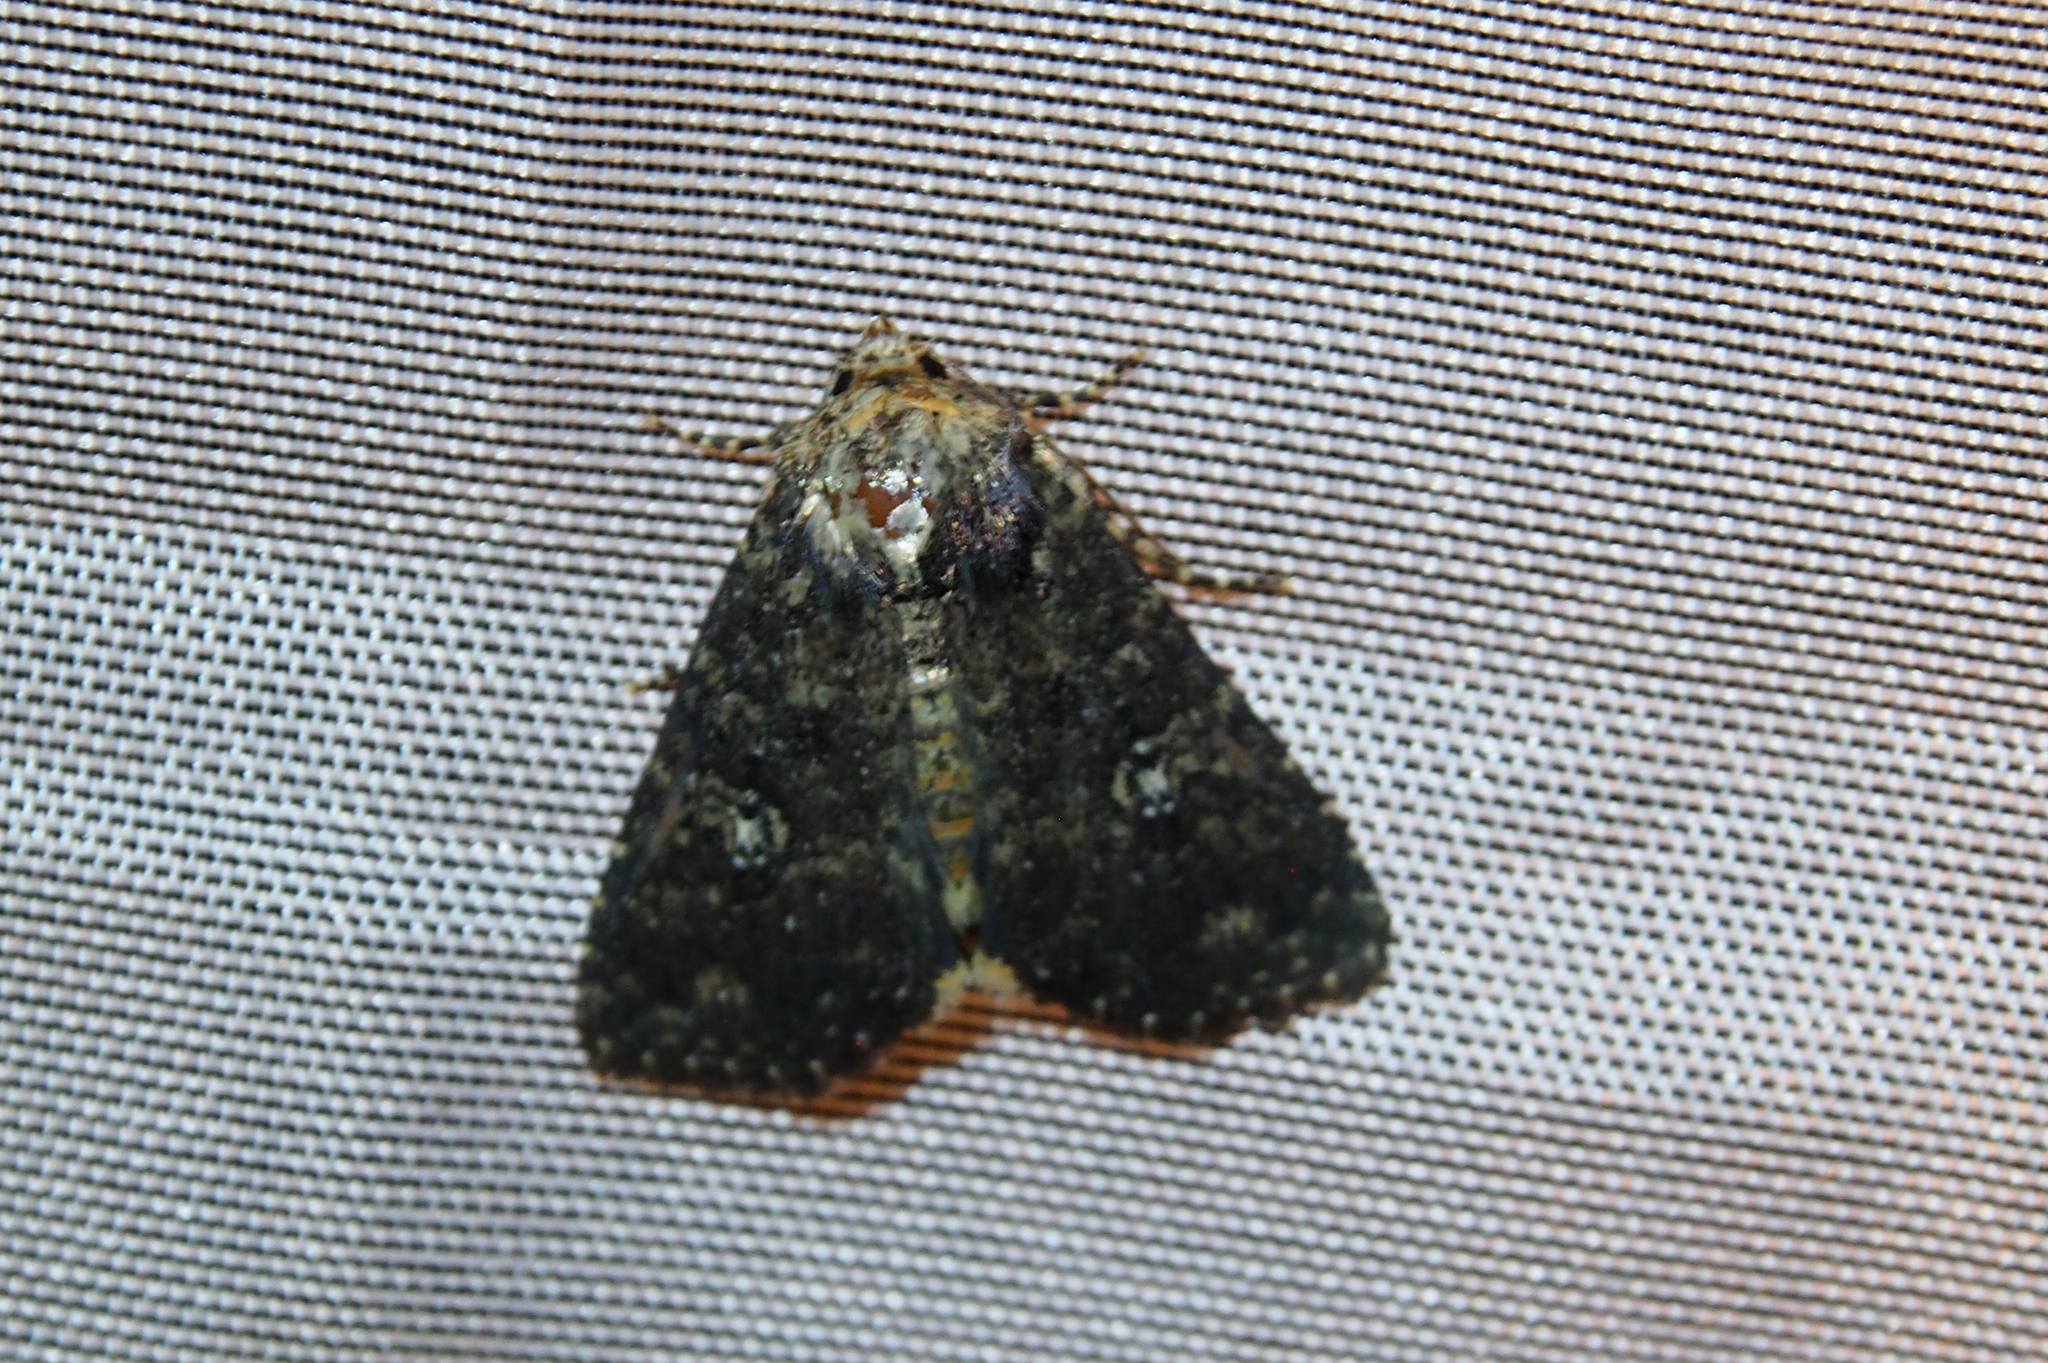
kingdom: Animalia
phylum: Arthropoda
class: Insecta
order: Lepidoptera
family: Noctuidae
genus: Condica
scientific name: Condica vecors
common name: Dusky groundling
